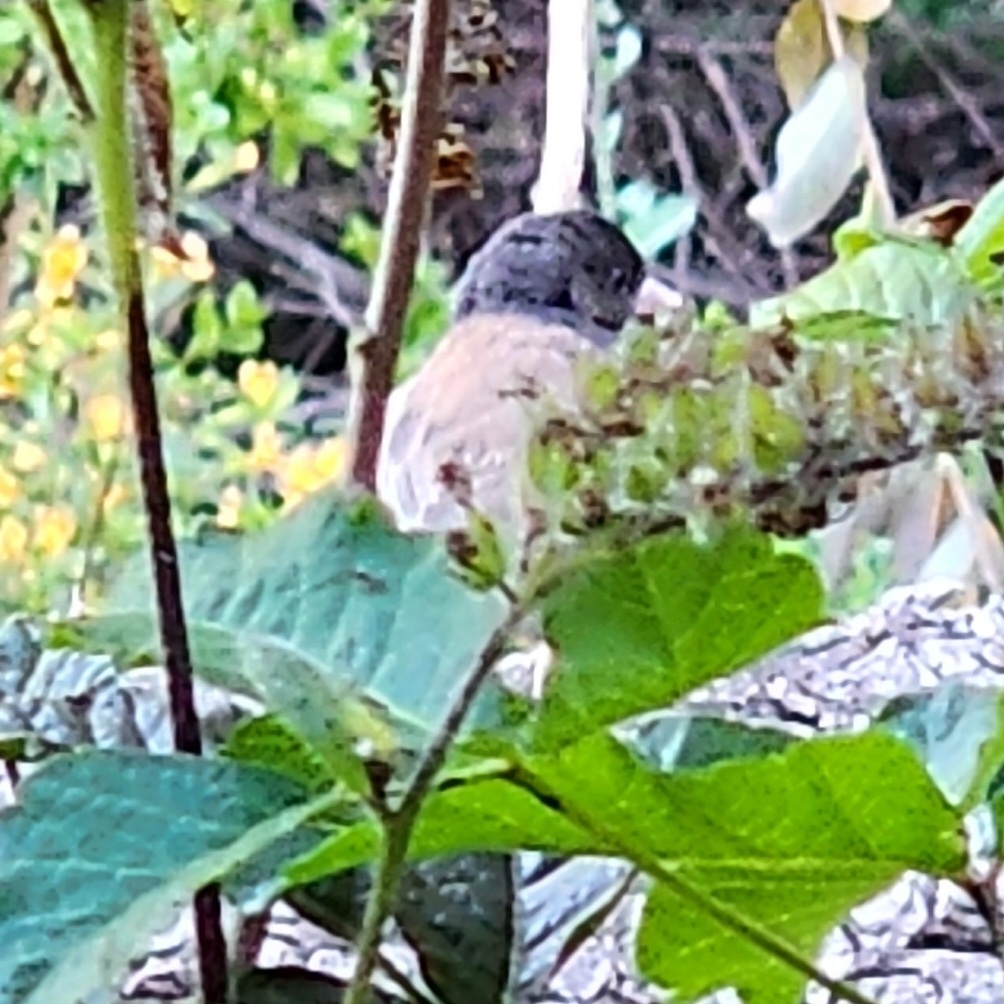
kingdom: Animalia
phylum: Chordata
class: Aves
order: Passeriformes
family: Passerellidae
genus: Junco
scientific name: Junco hyemalis
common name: Dark-eyed junco
